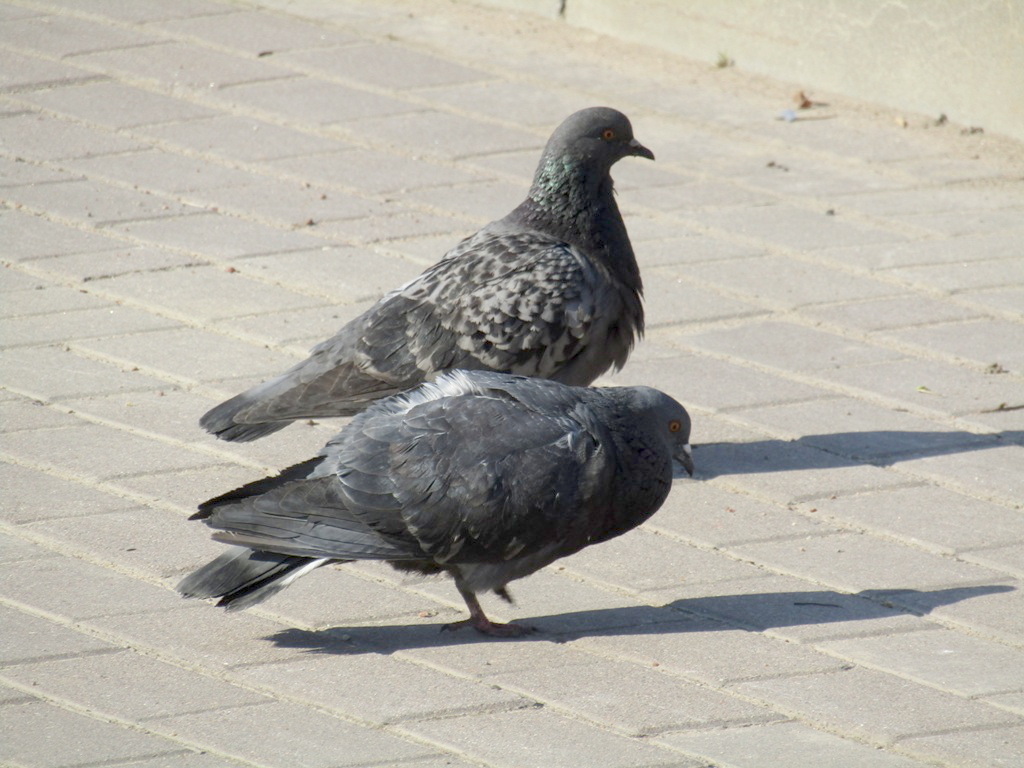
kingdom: Animalia
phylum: Chordata
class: Aves
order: Columbiformes
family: Columbidae
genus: Columba
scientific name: Columba livia
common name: Rock pigeon
